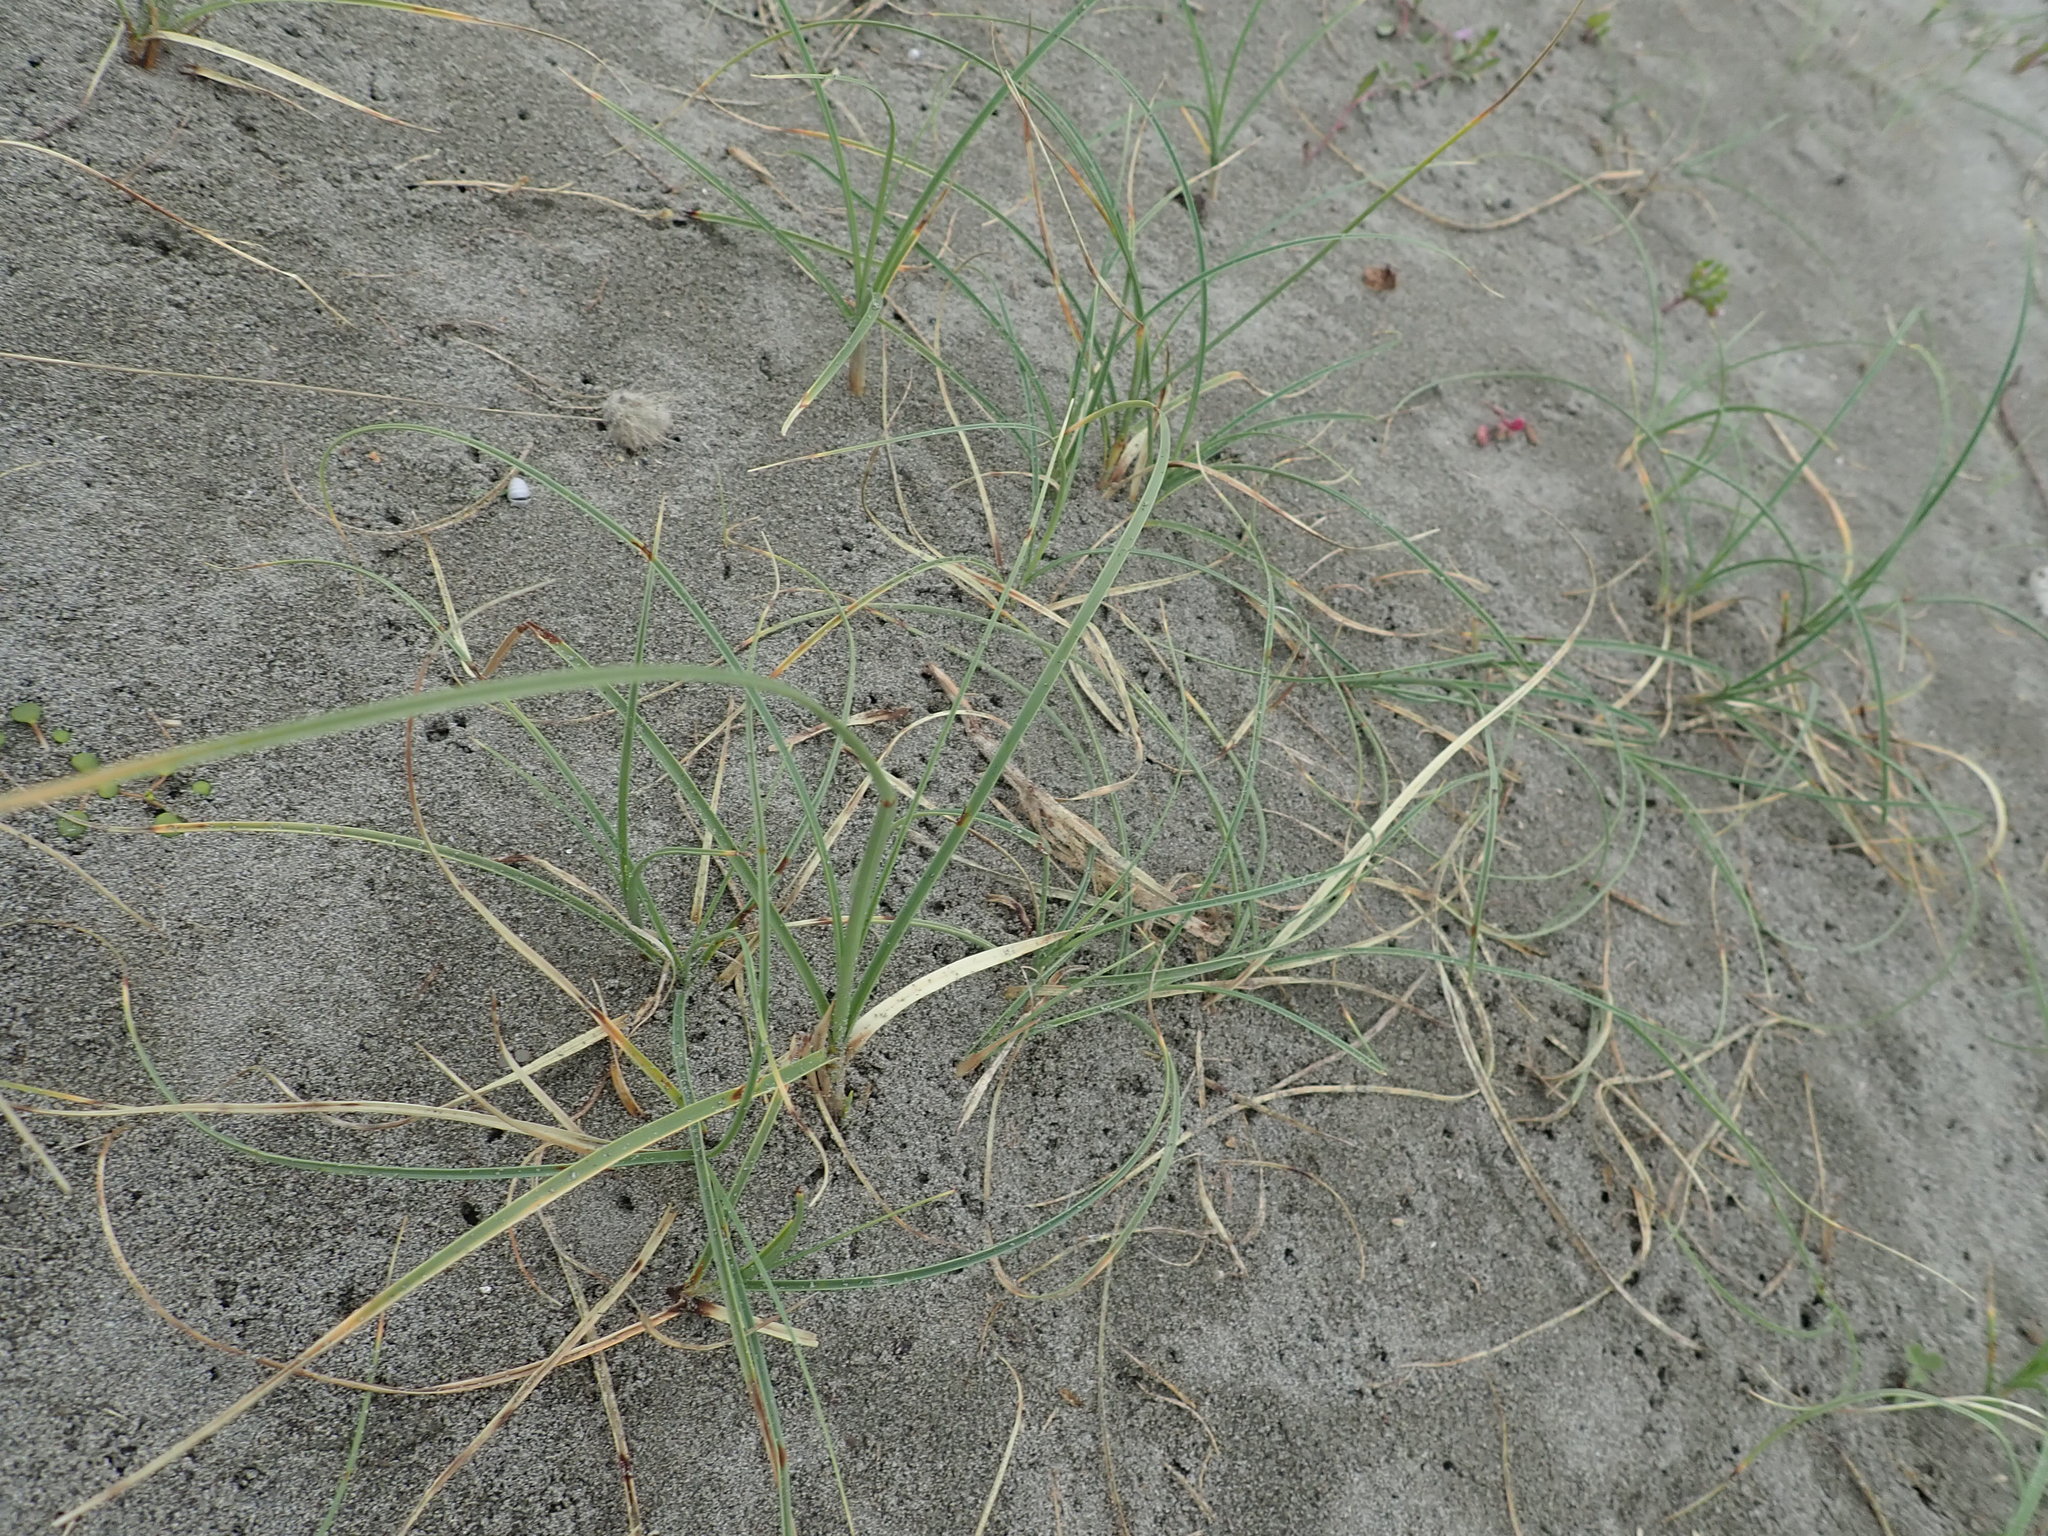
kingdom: Plantae
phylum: Tracheophyta
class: Liliopsida
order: Poales
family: Cyperaceae
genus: Carex
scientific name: Carex pumila
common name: Dwarf sedge
